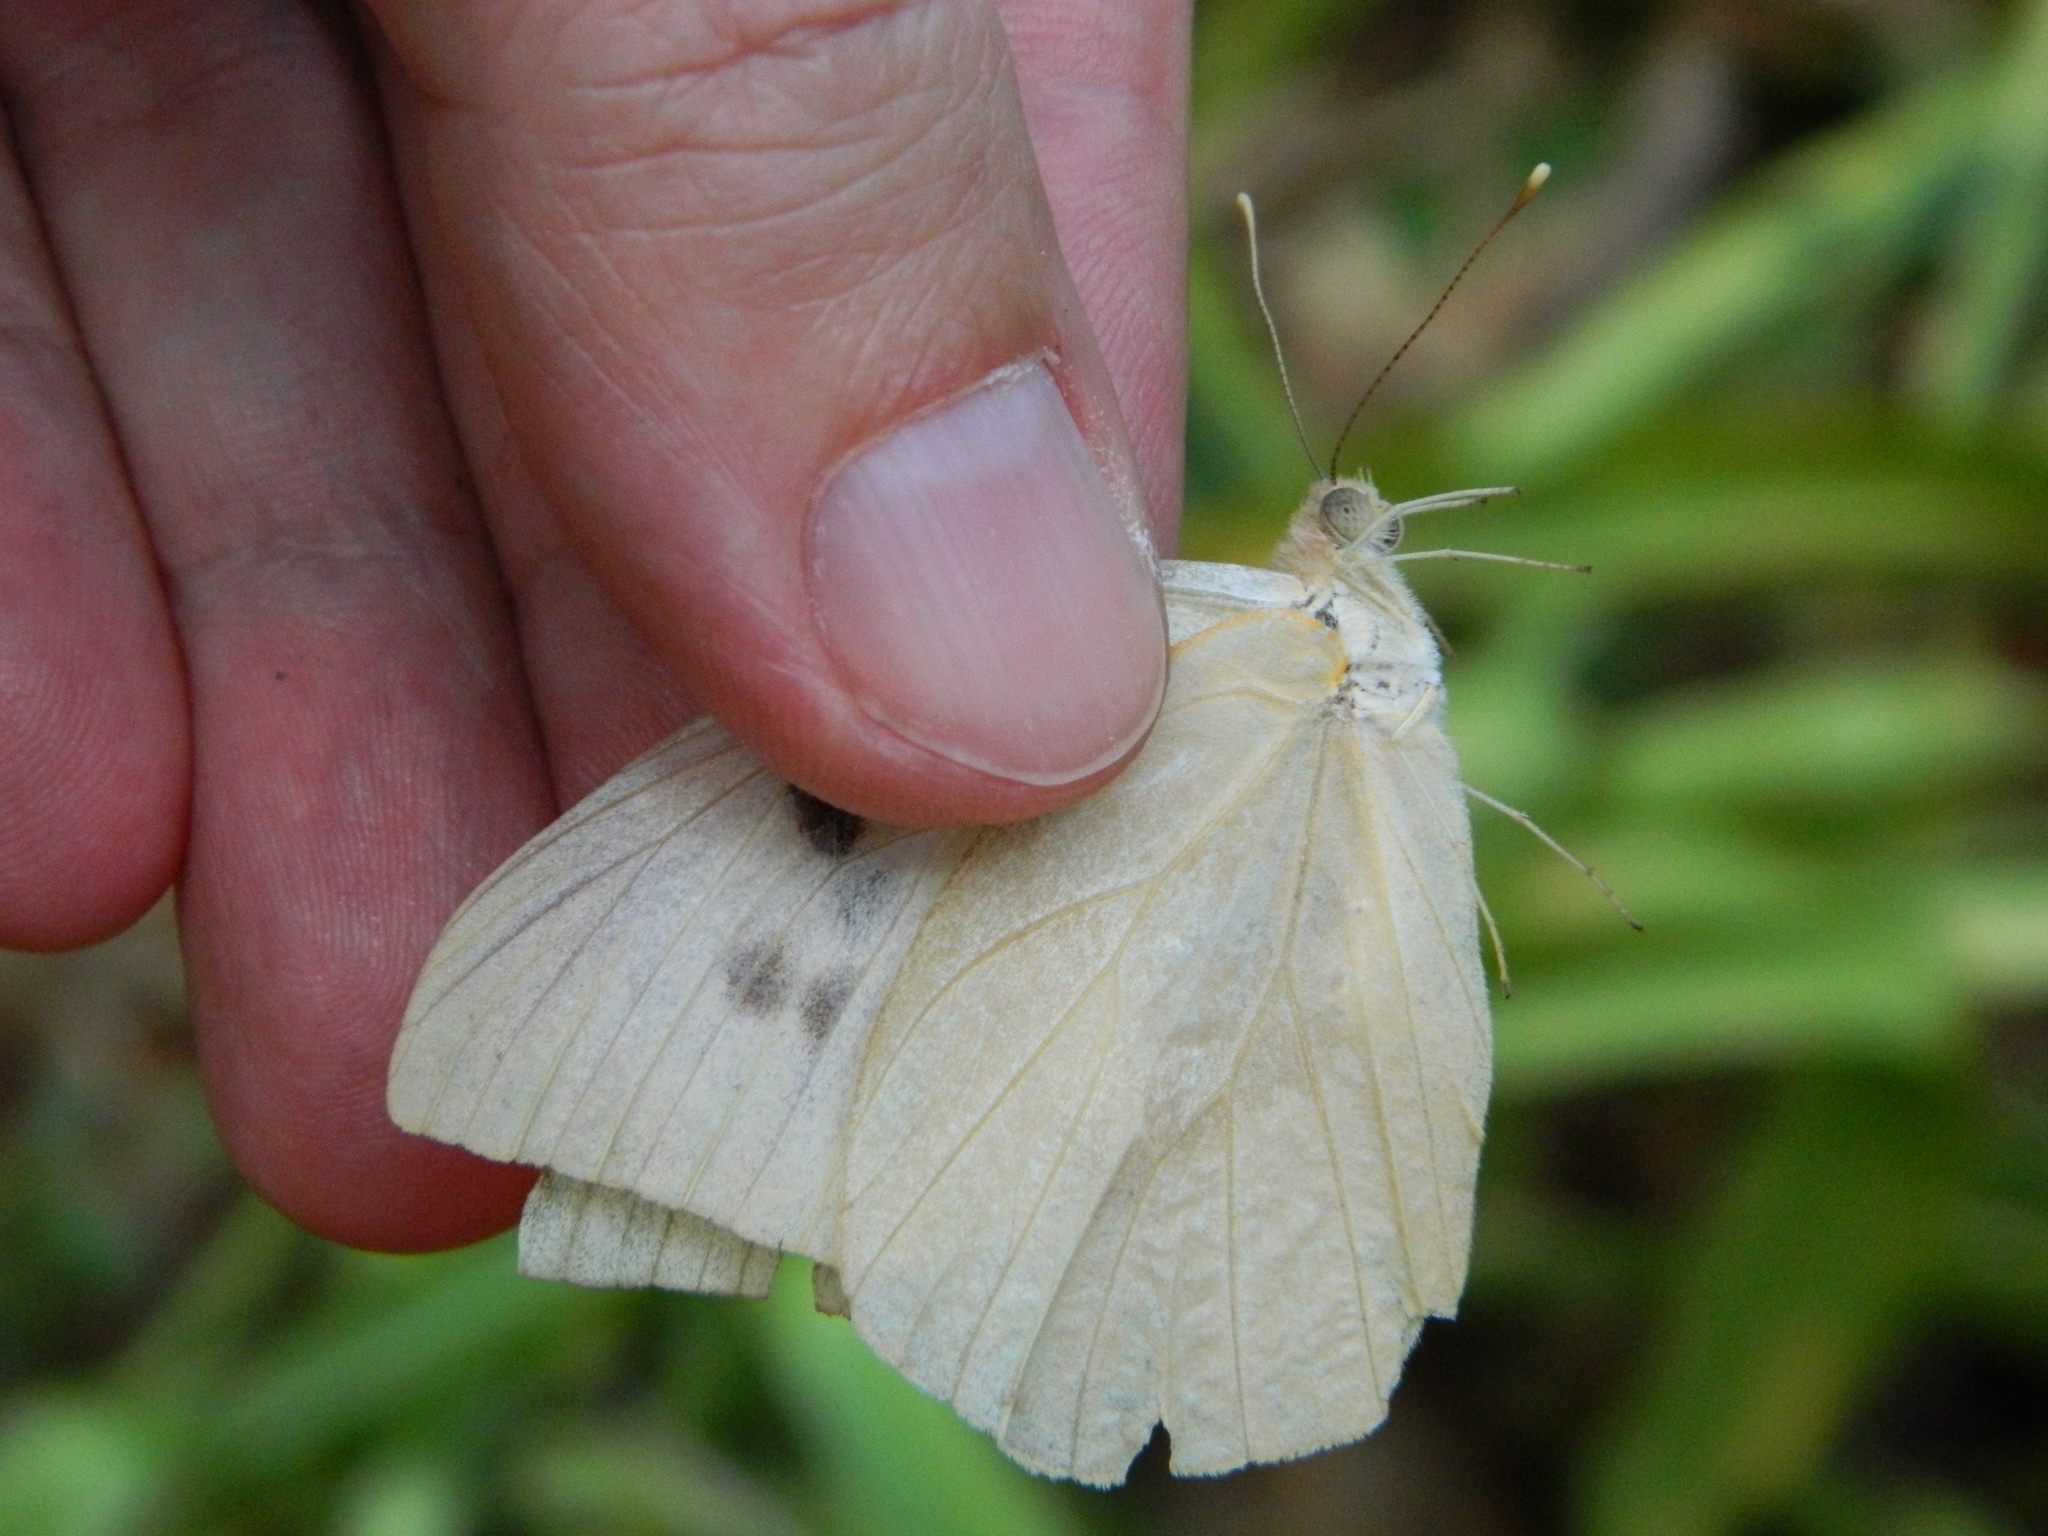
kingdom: Animalia
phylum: Arthropoda
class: Insecta
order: Lepidoptera
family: Pieridae
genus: Ganyra
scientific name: Ganyra josephina
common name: Giant white
